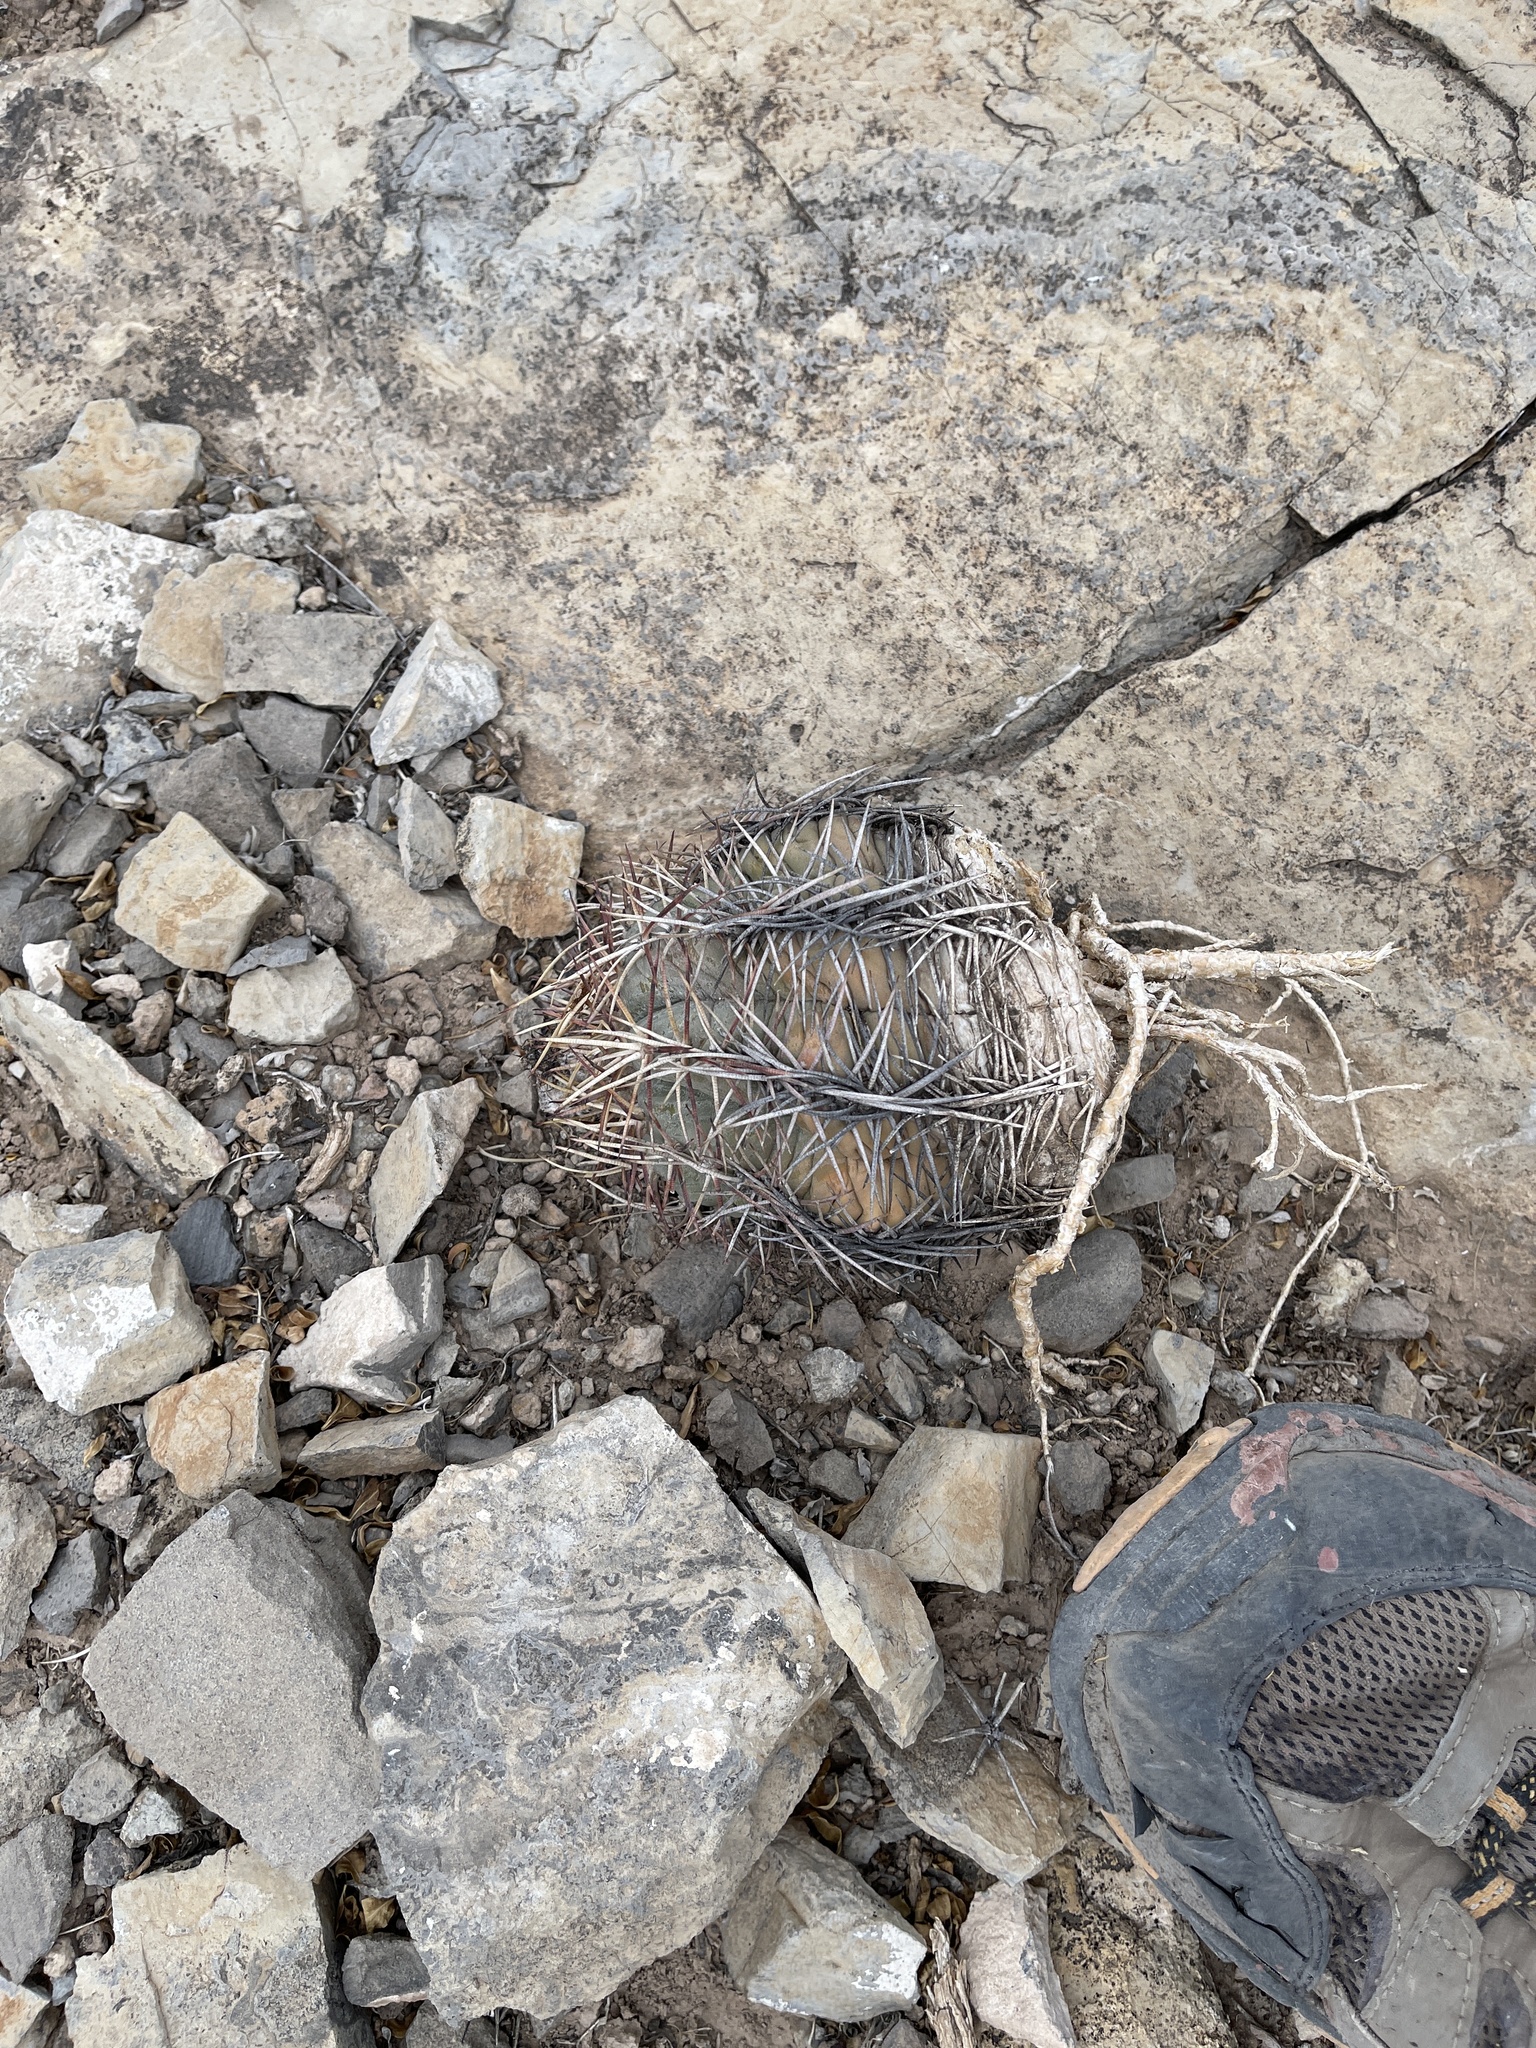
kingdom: Plantae
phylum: Tracheophyta
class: Magnoliopsida
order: Caryophyllales
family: Cactaceae
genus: Echinocactus
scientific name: Echinocactus horizonthalonius
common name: Devilshead
